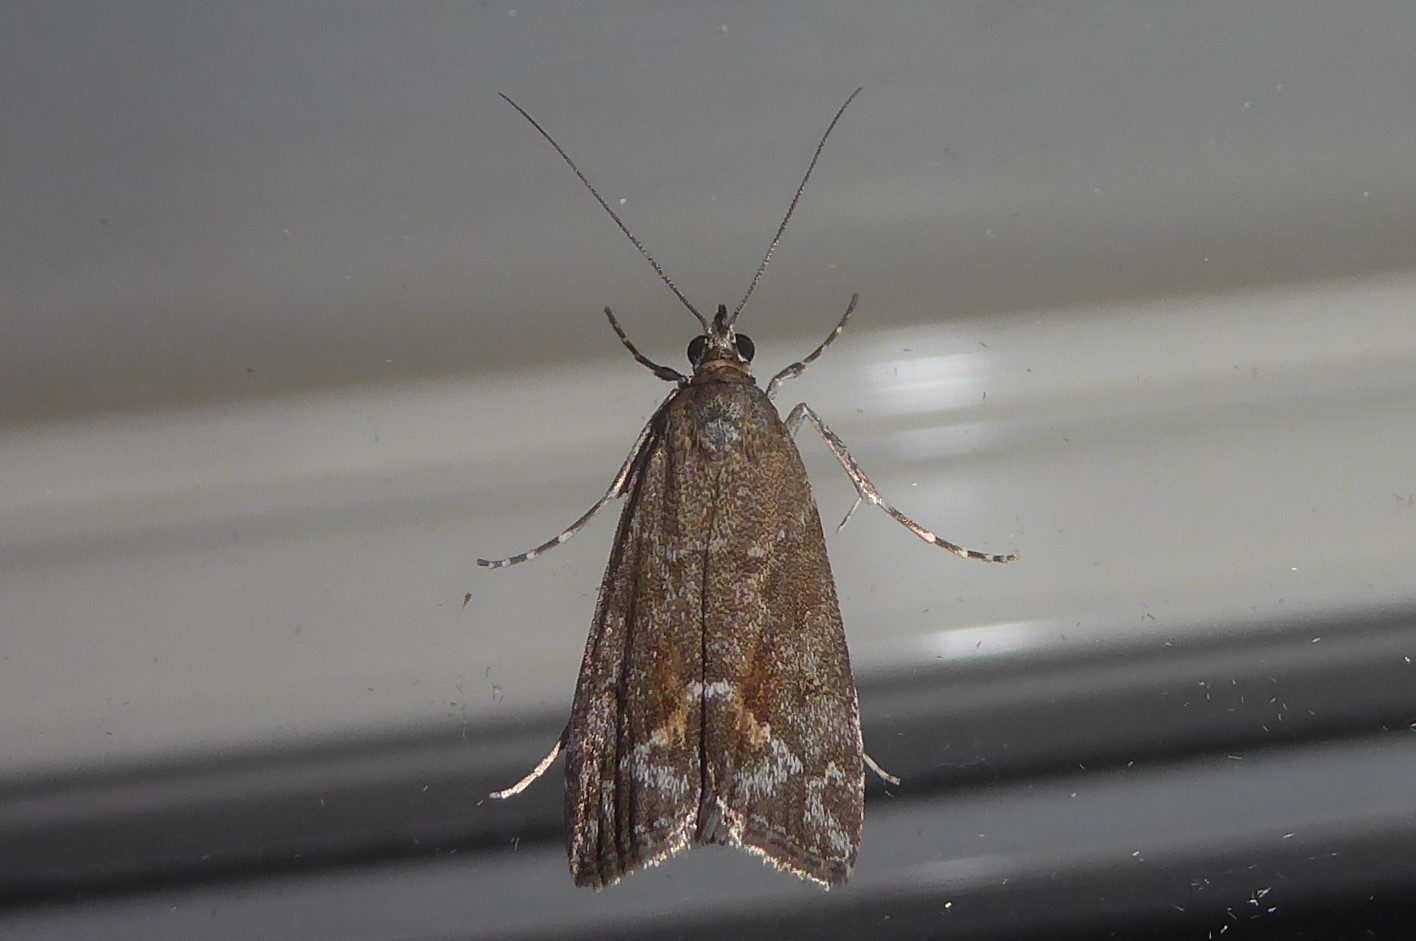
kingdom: Animalia
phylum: Arthropoda
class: Insecta
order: Lepidoptera
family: Crambidae
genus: Eudonia
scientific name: Eudonia submarginalis
